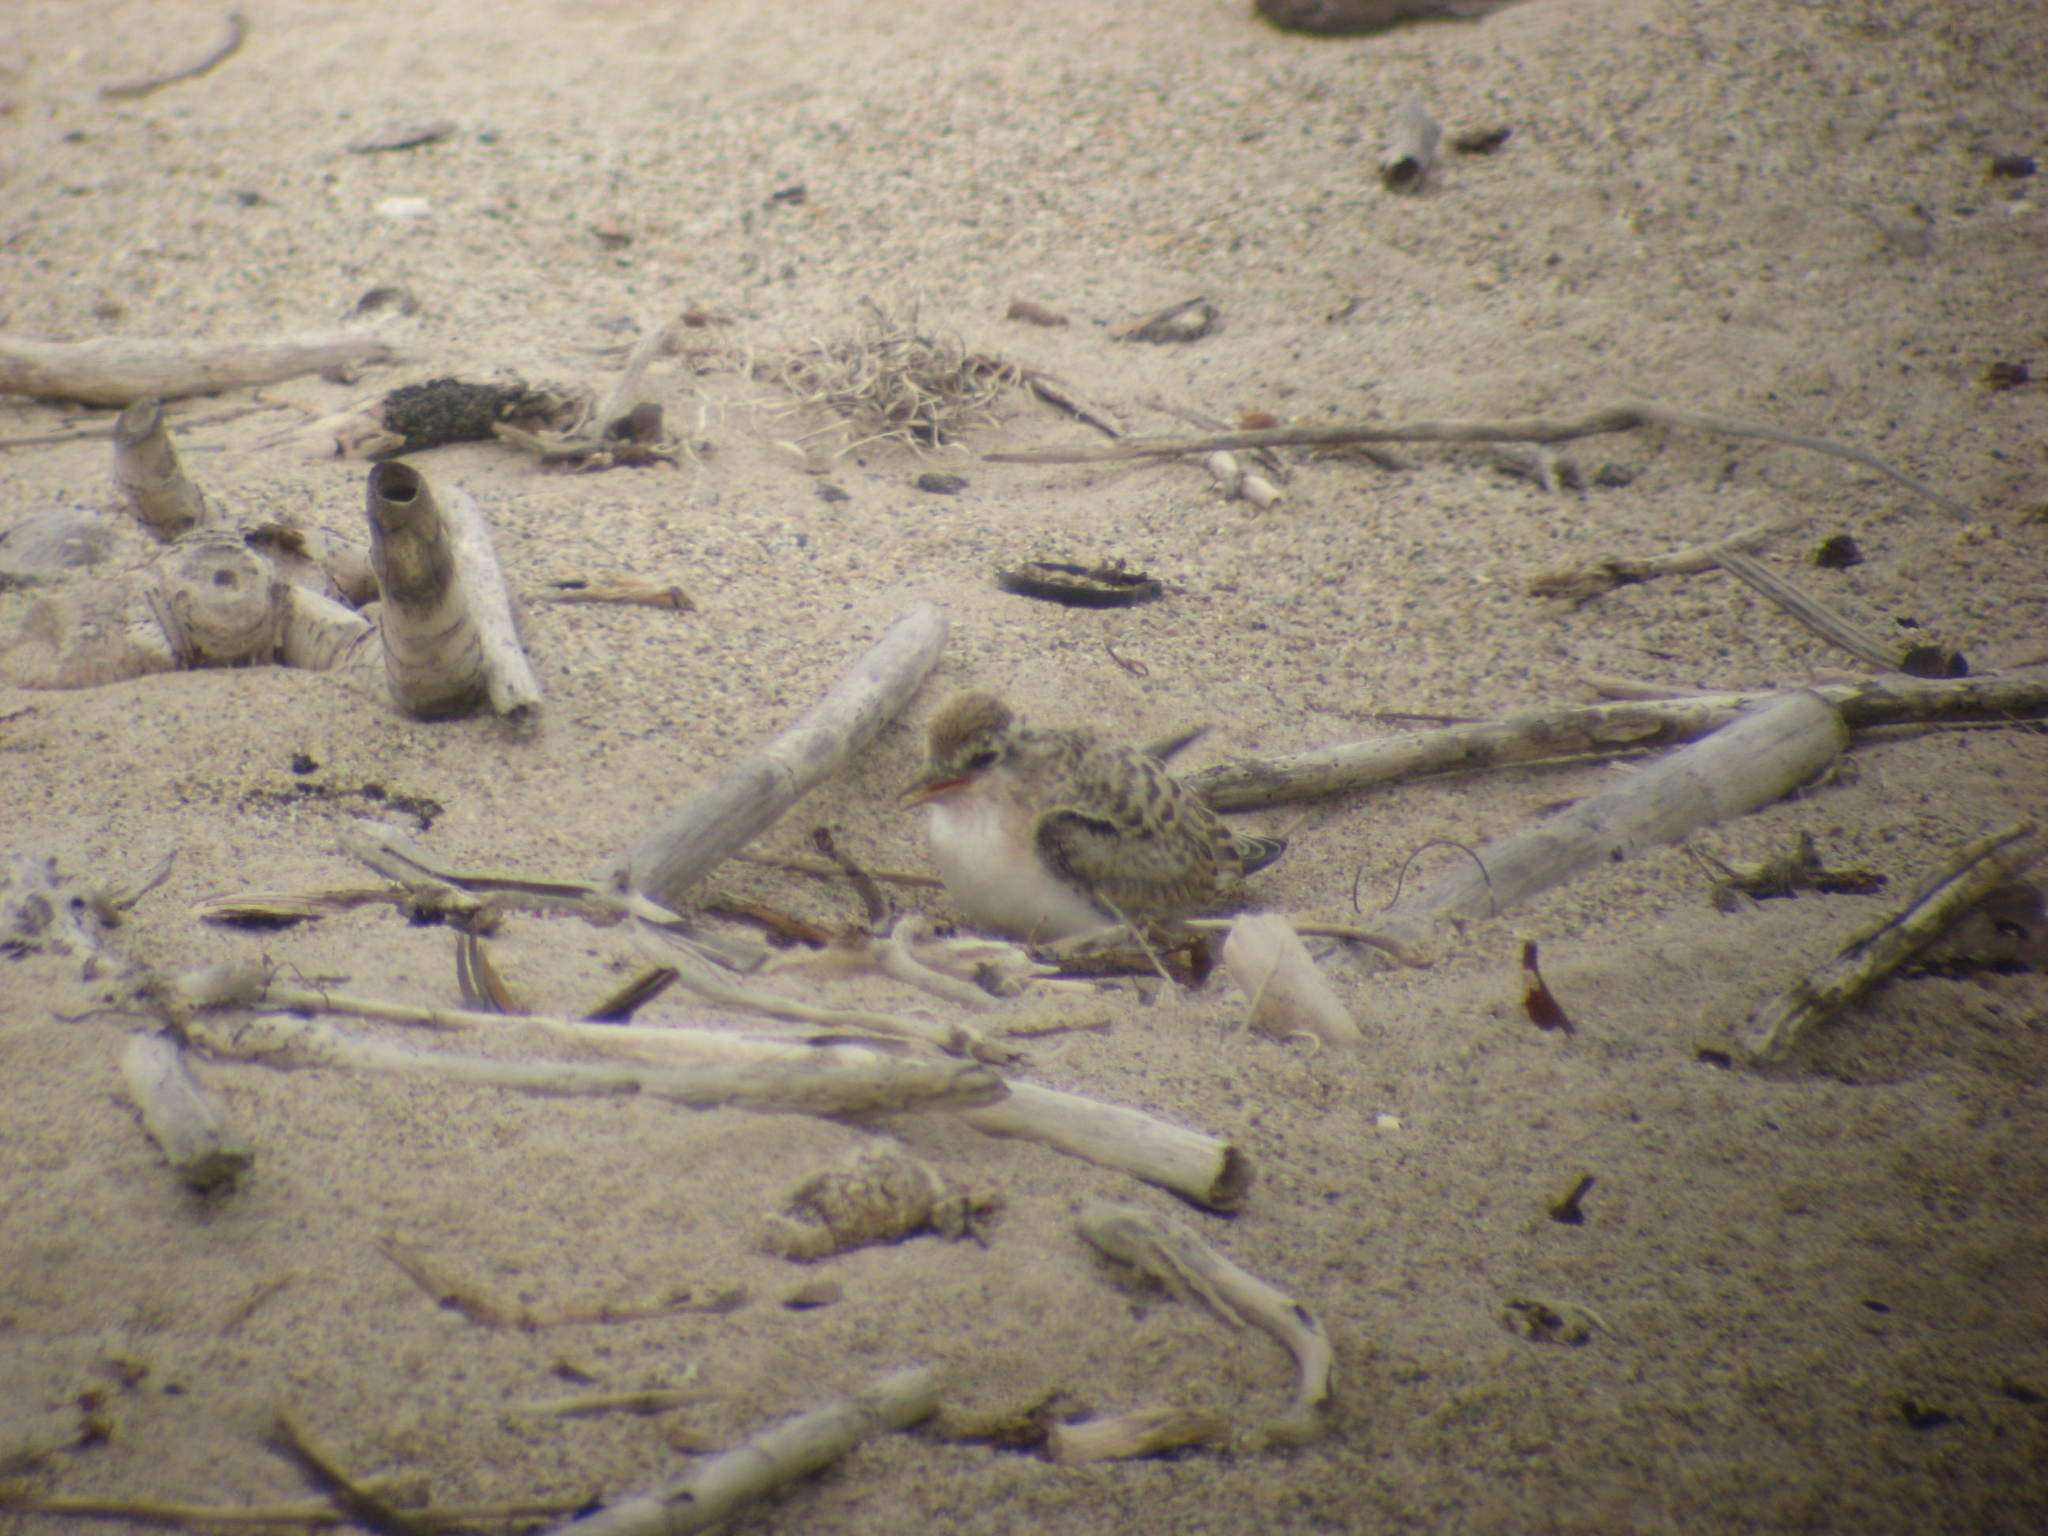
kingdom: Animalia
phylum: Chordata
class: Aves
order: Charadriiformes
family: Laridae
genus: Sternula
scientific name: Sternula antillarum
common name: Least tern
